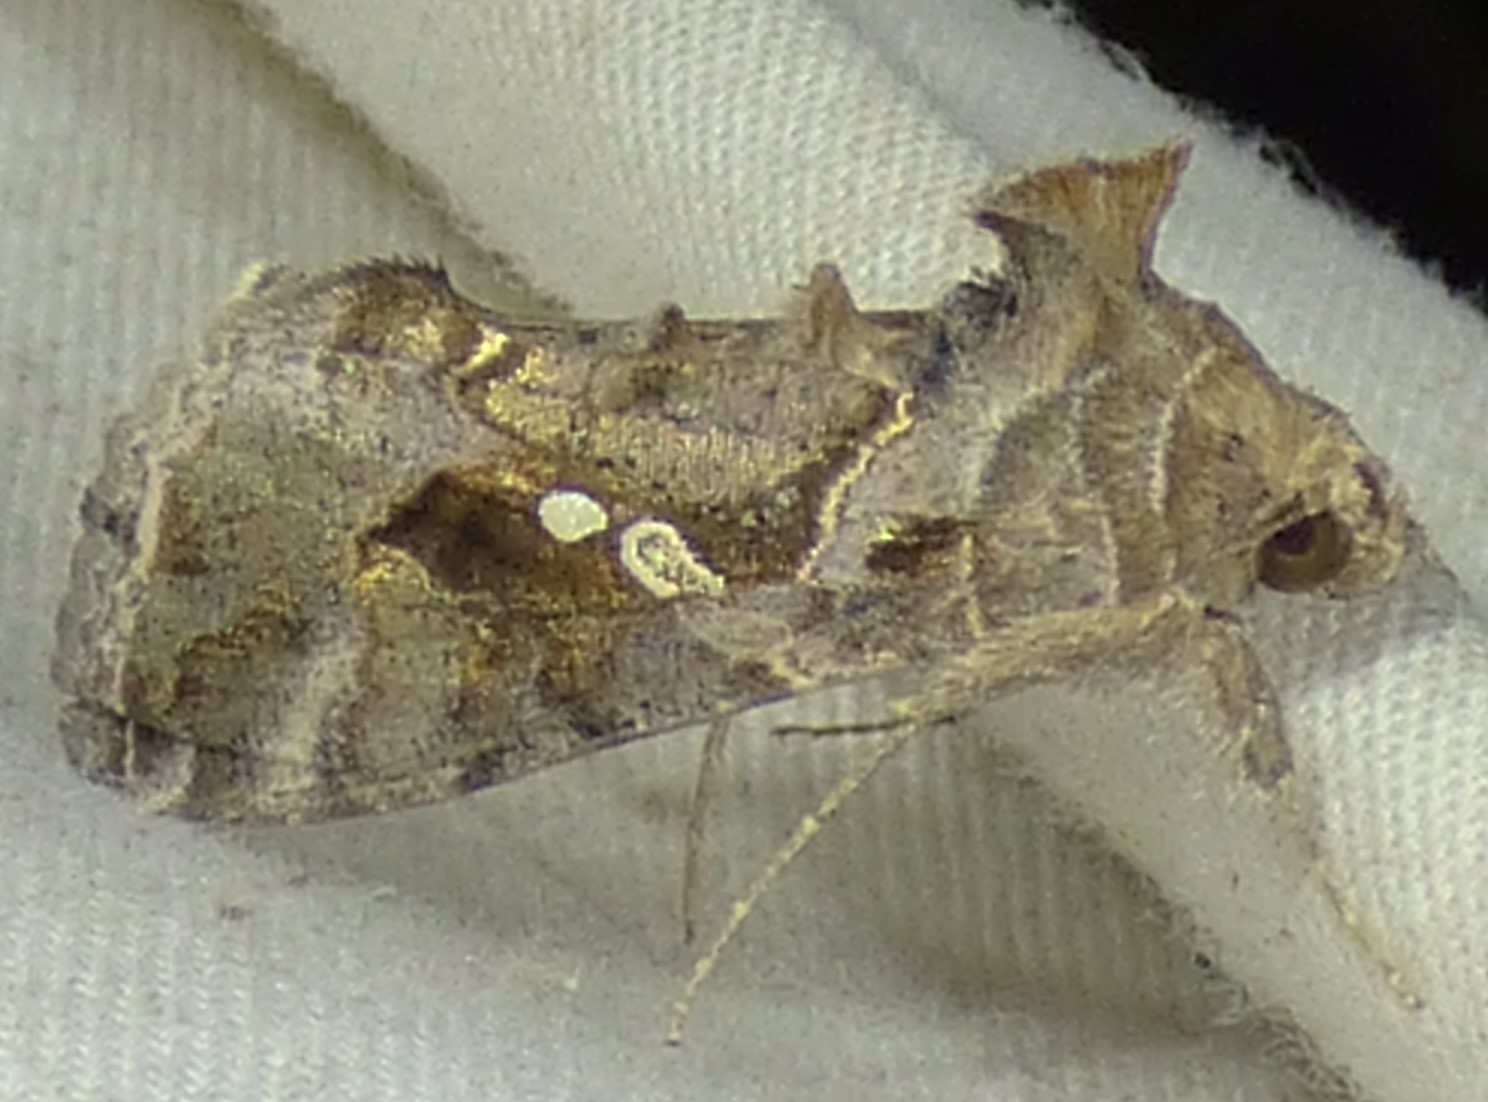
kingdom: Animalia
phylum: Arthropoda
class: Insecta
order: Lepidoptera
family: Noctuidae
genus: Chrysodeixis
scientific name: Chrysodeixis includens
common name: Cutworm moth
